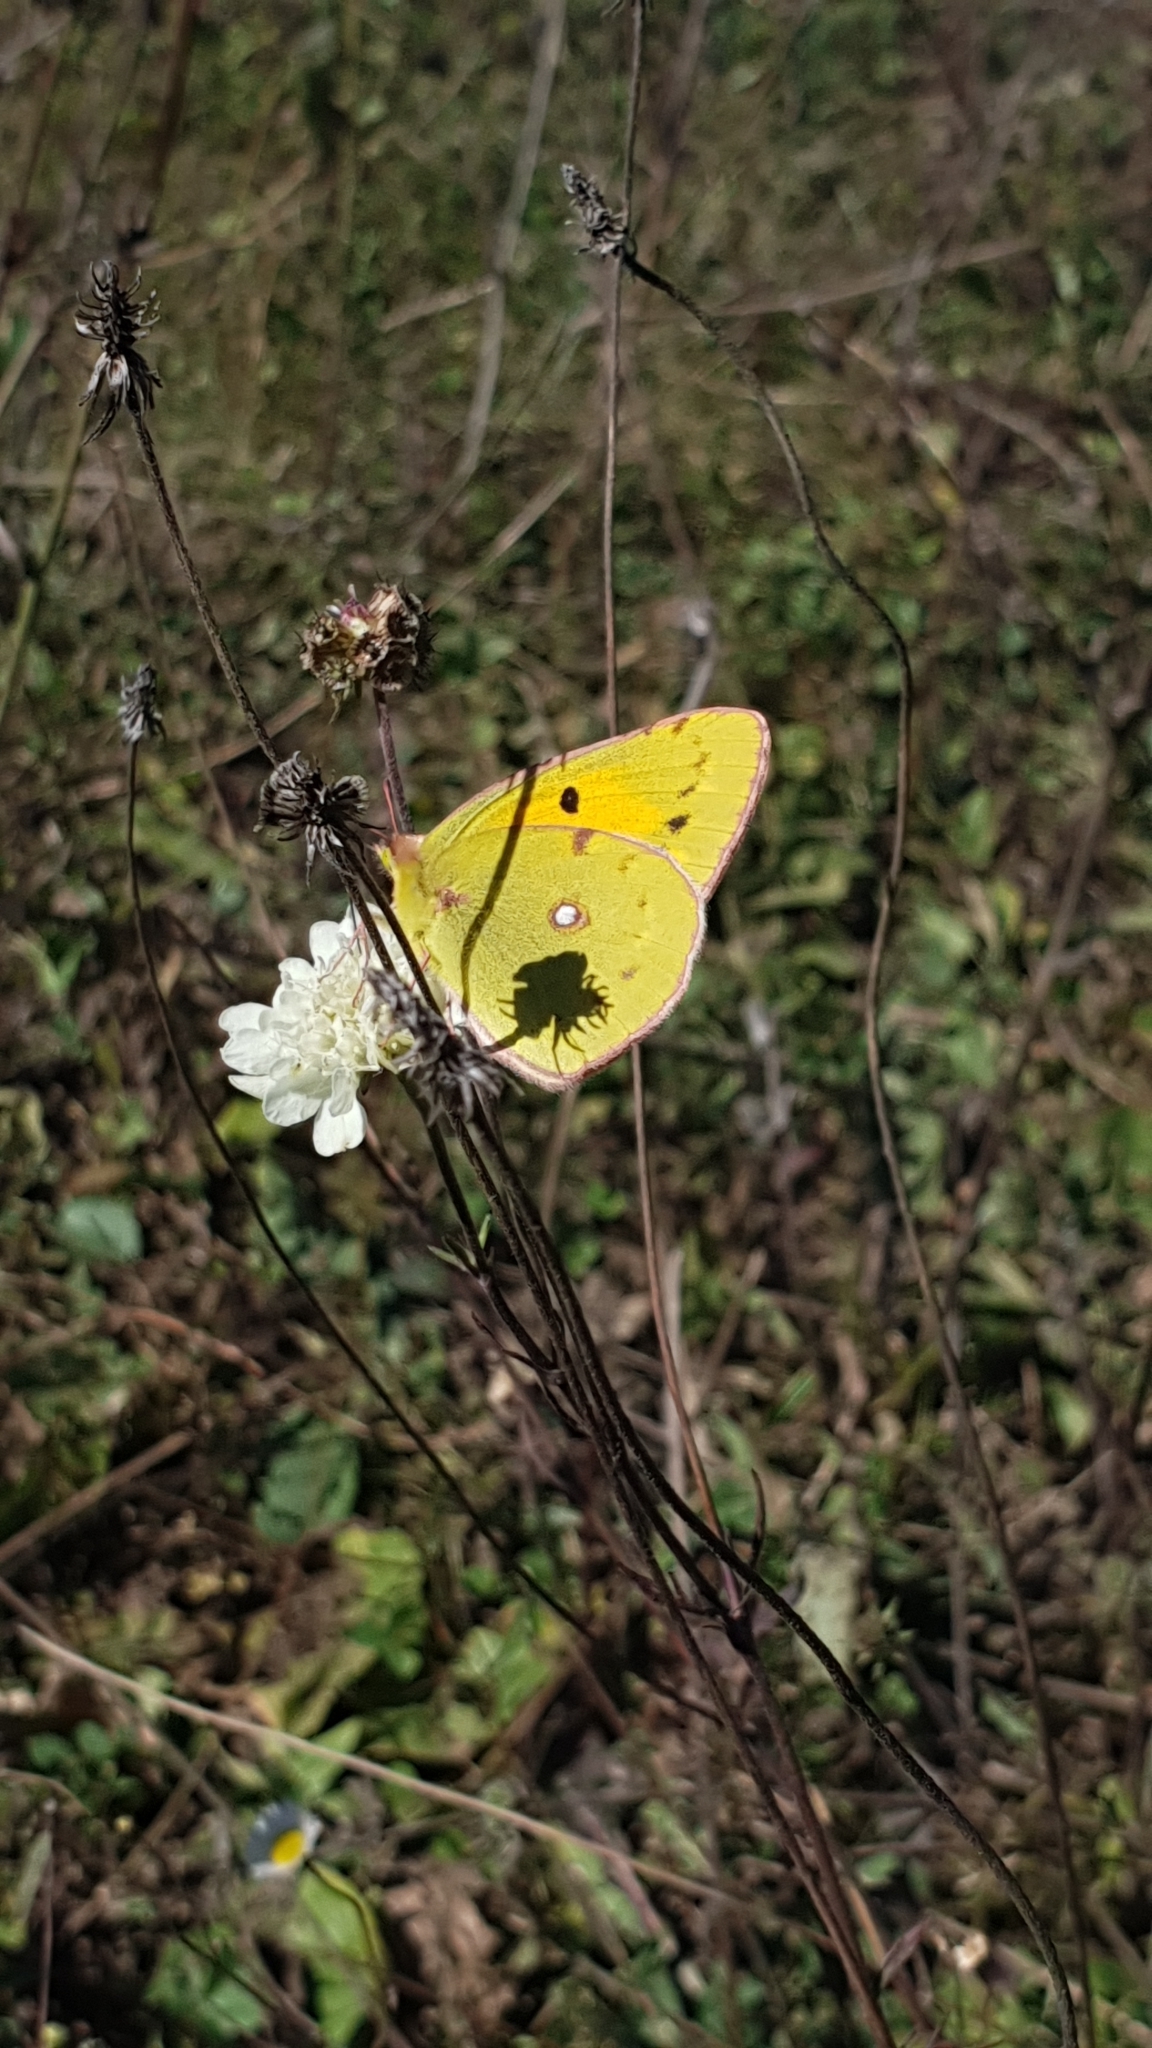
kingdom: Animalia
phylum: Arthropoda
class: Insecta
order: Lepidoptera
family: Pieridae
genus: Colias
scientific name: Colias croceus
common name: Clouded yellow
